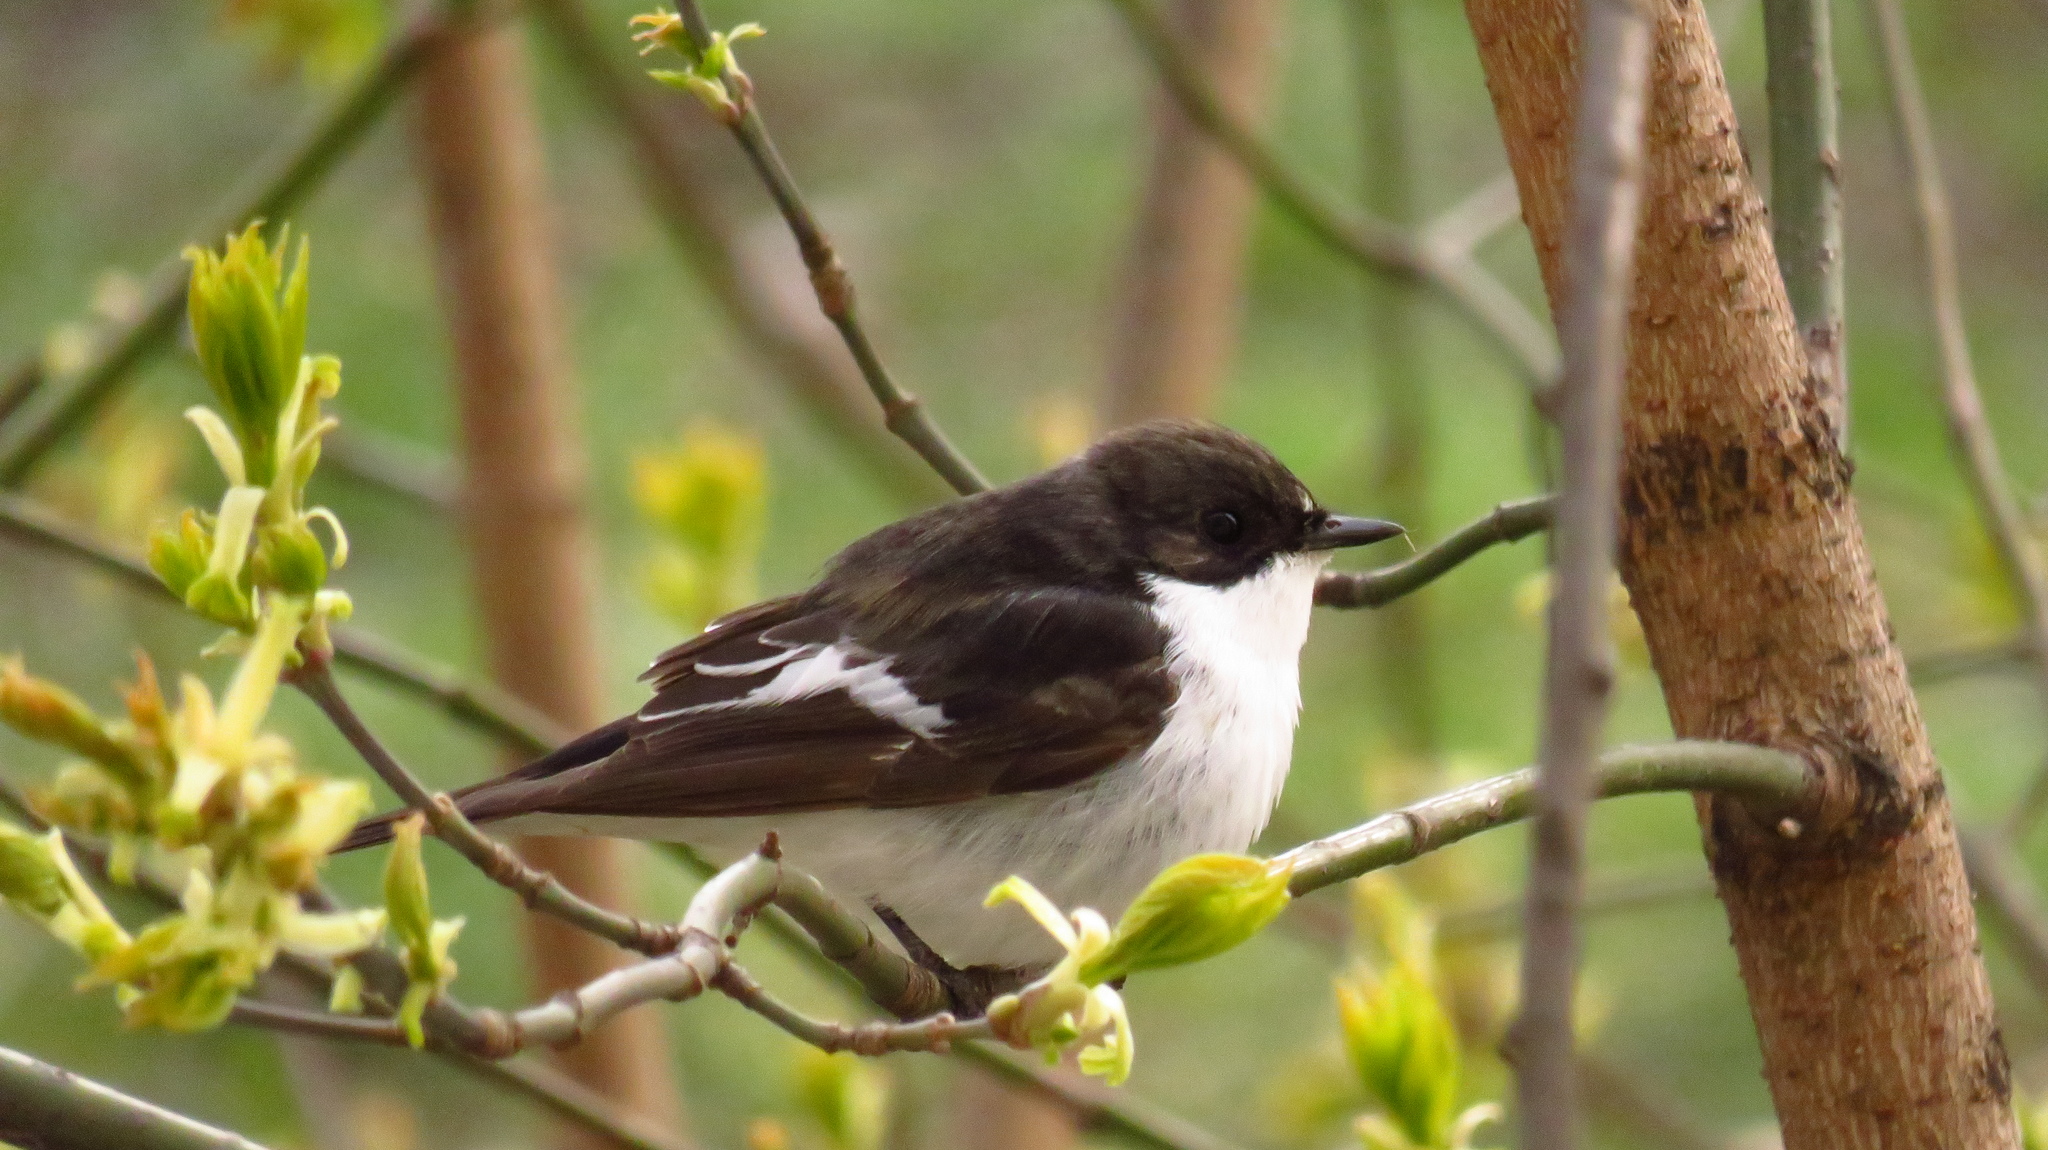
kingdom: Animalia
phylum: Chordata
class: Aves
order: Passeriformes
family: Muscicapidae
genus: Ficedula
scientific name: Ficedula hypoleuca
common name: European pied flycatcher
